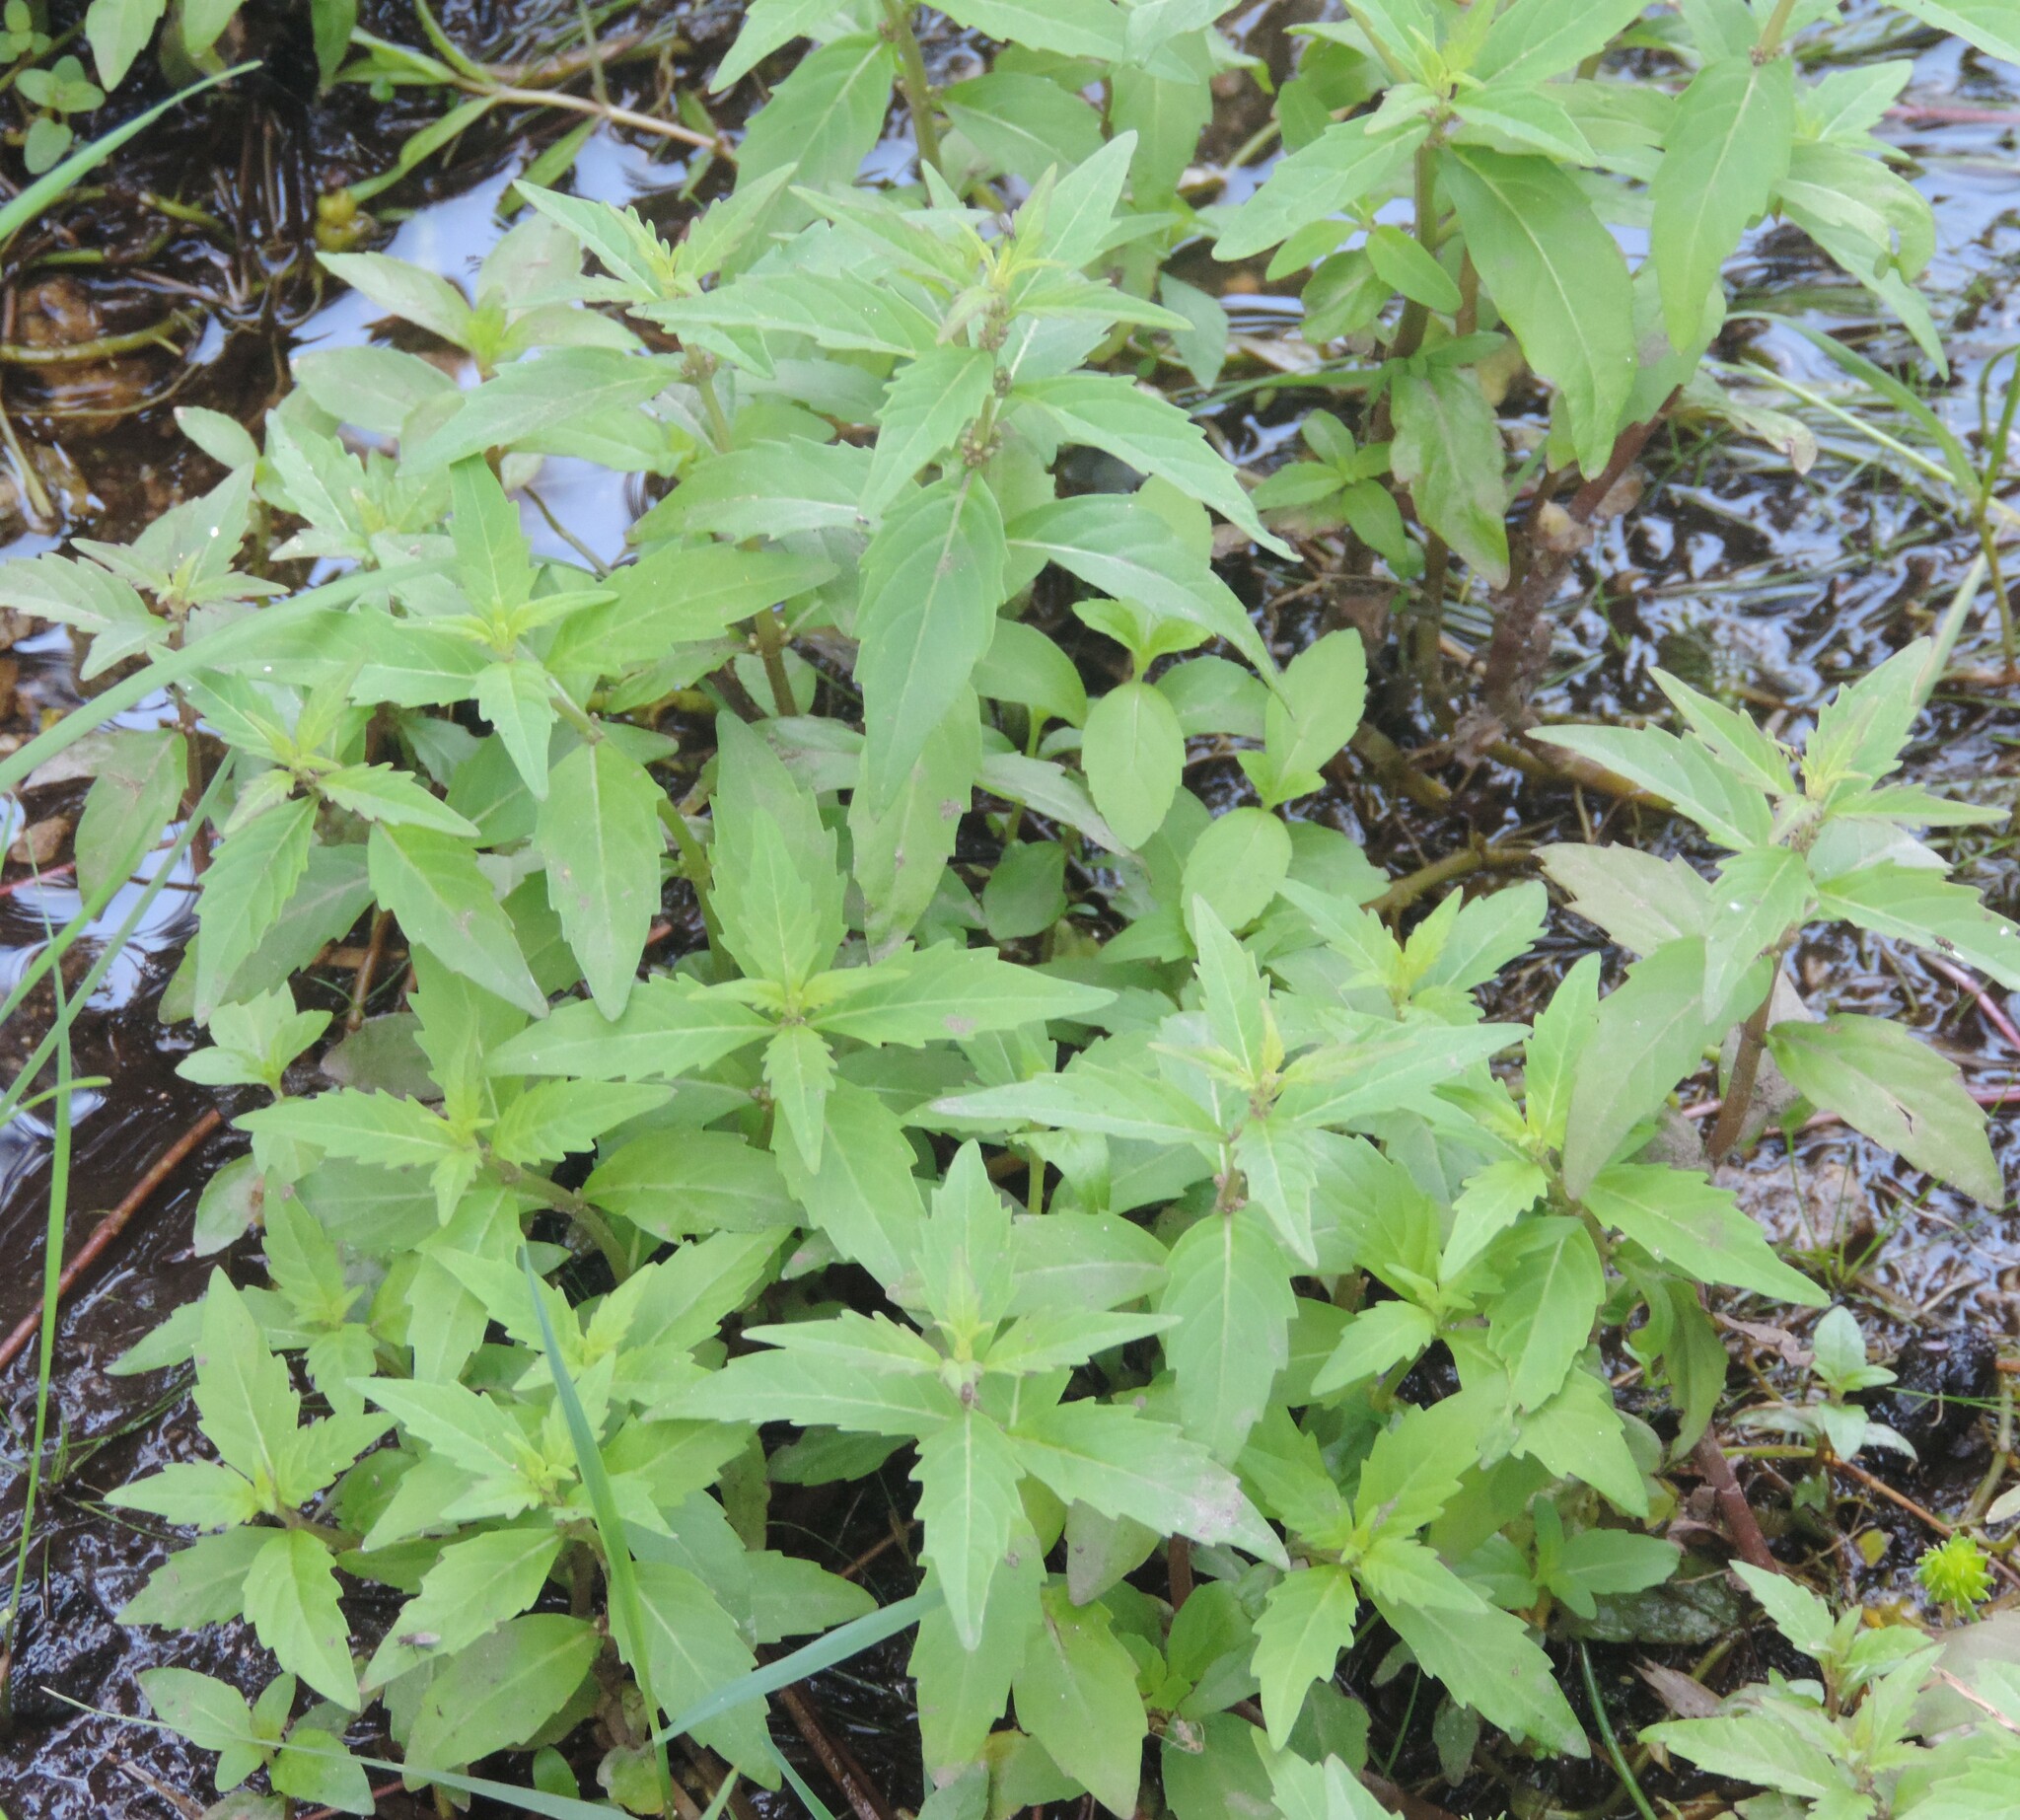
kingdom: Plantae
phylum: Tracheophyta
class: Magnoliopsida
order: Lamiales
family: Lamiaceae
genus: Mentha
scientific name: Mentha canadensis
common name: American corn mint
